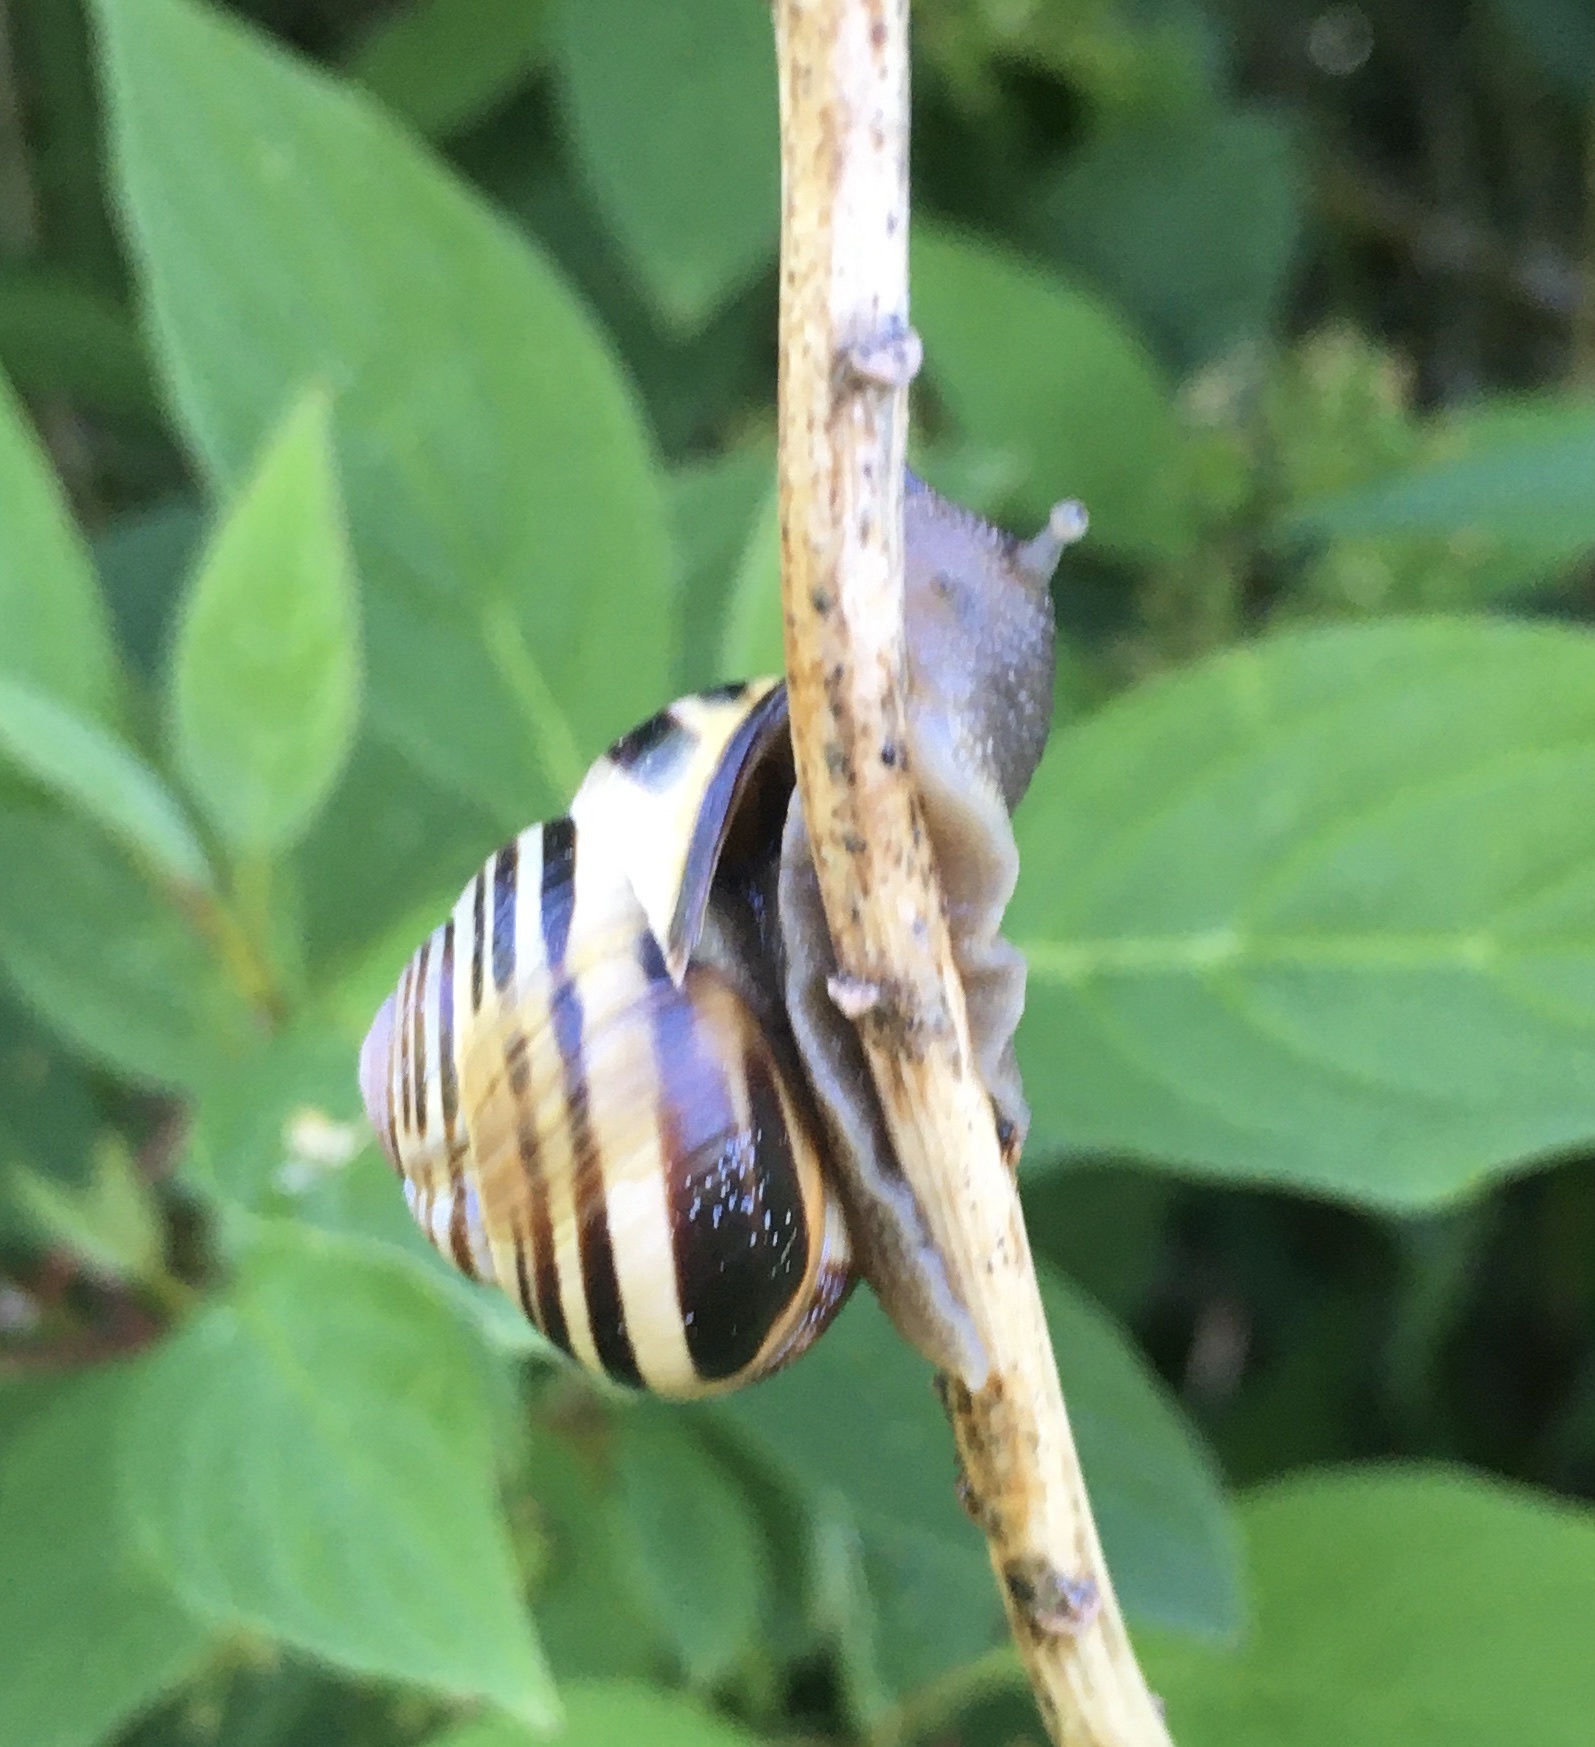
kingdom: Animalia
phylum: Mollusca
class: Gastropoda
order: Stylommatophora
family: Helicidae
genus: Cepaea
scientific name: Cepaea nemoralis
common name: Grovesnail
